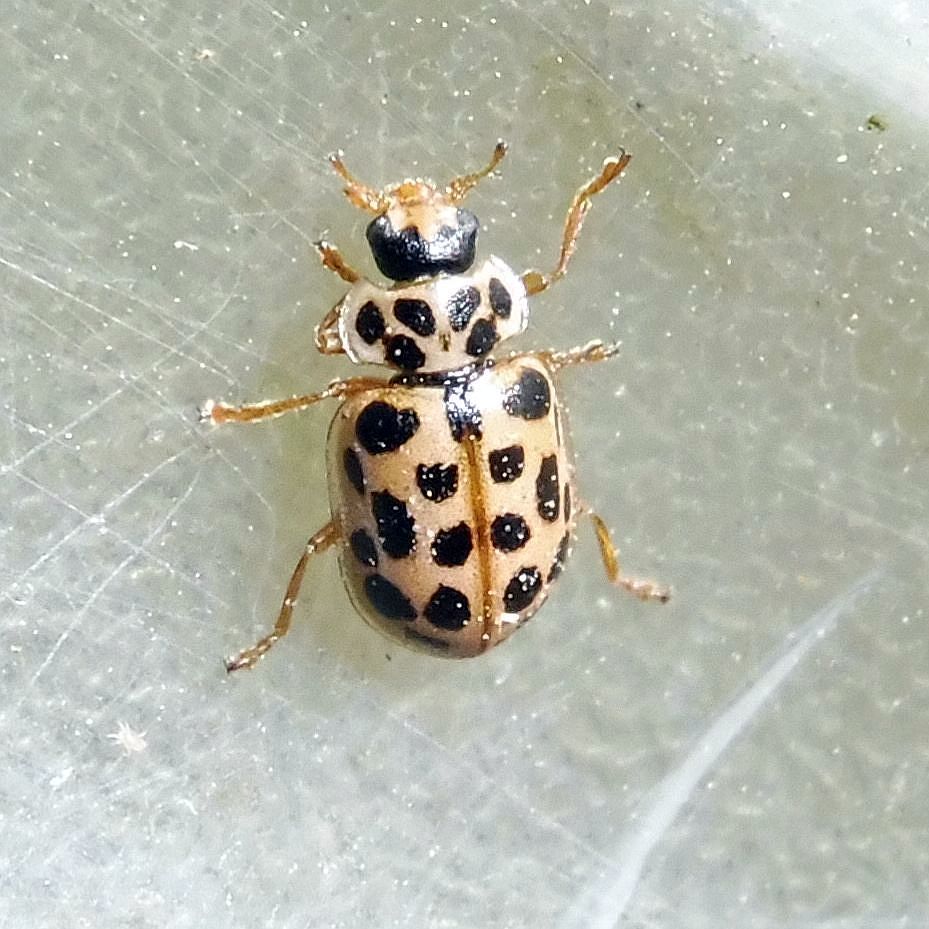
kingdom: Animalia
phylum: Arthropoda
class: Insecta
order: Coleoptera
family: Coccinellidae
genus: Anisosticta
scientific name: Anisosticta novemdecimpunctata
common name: Water ladybird
